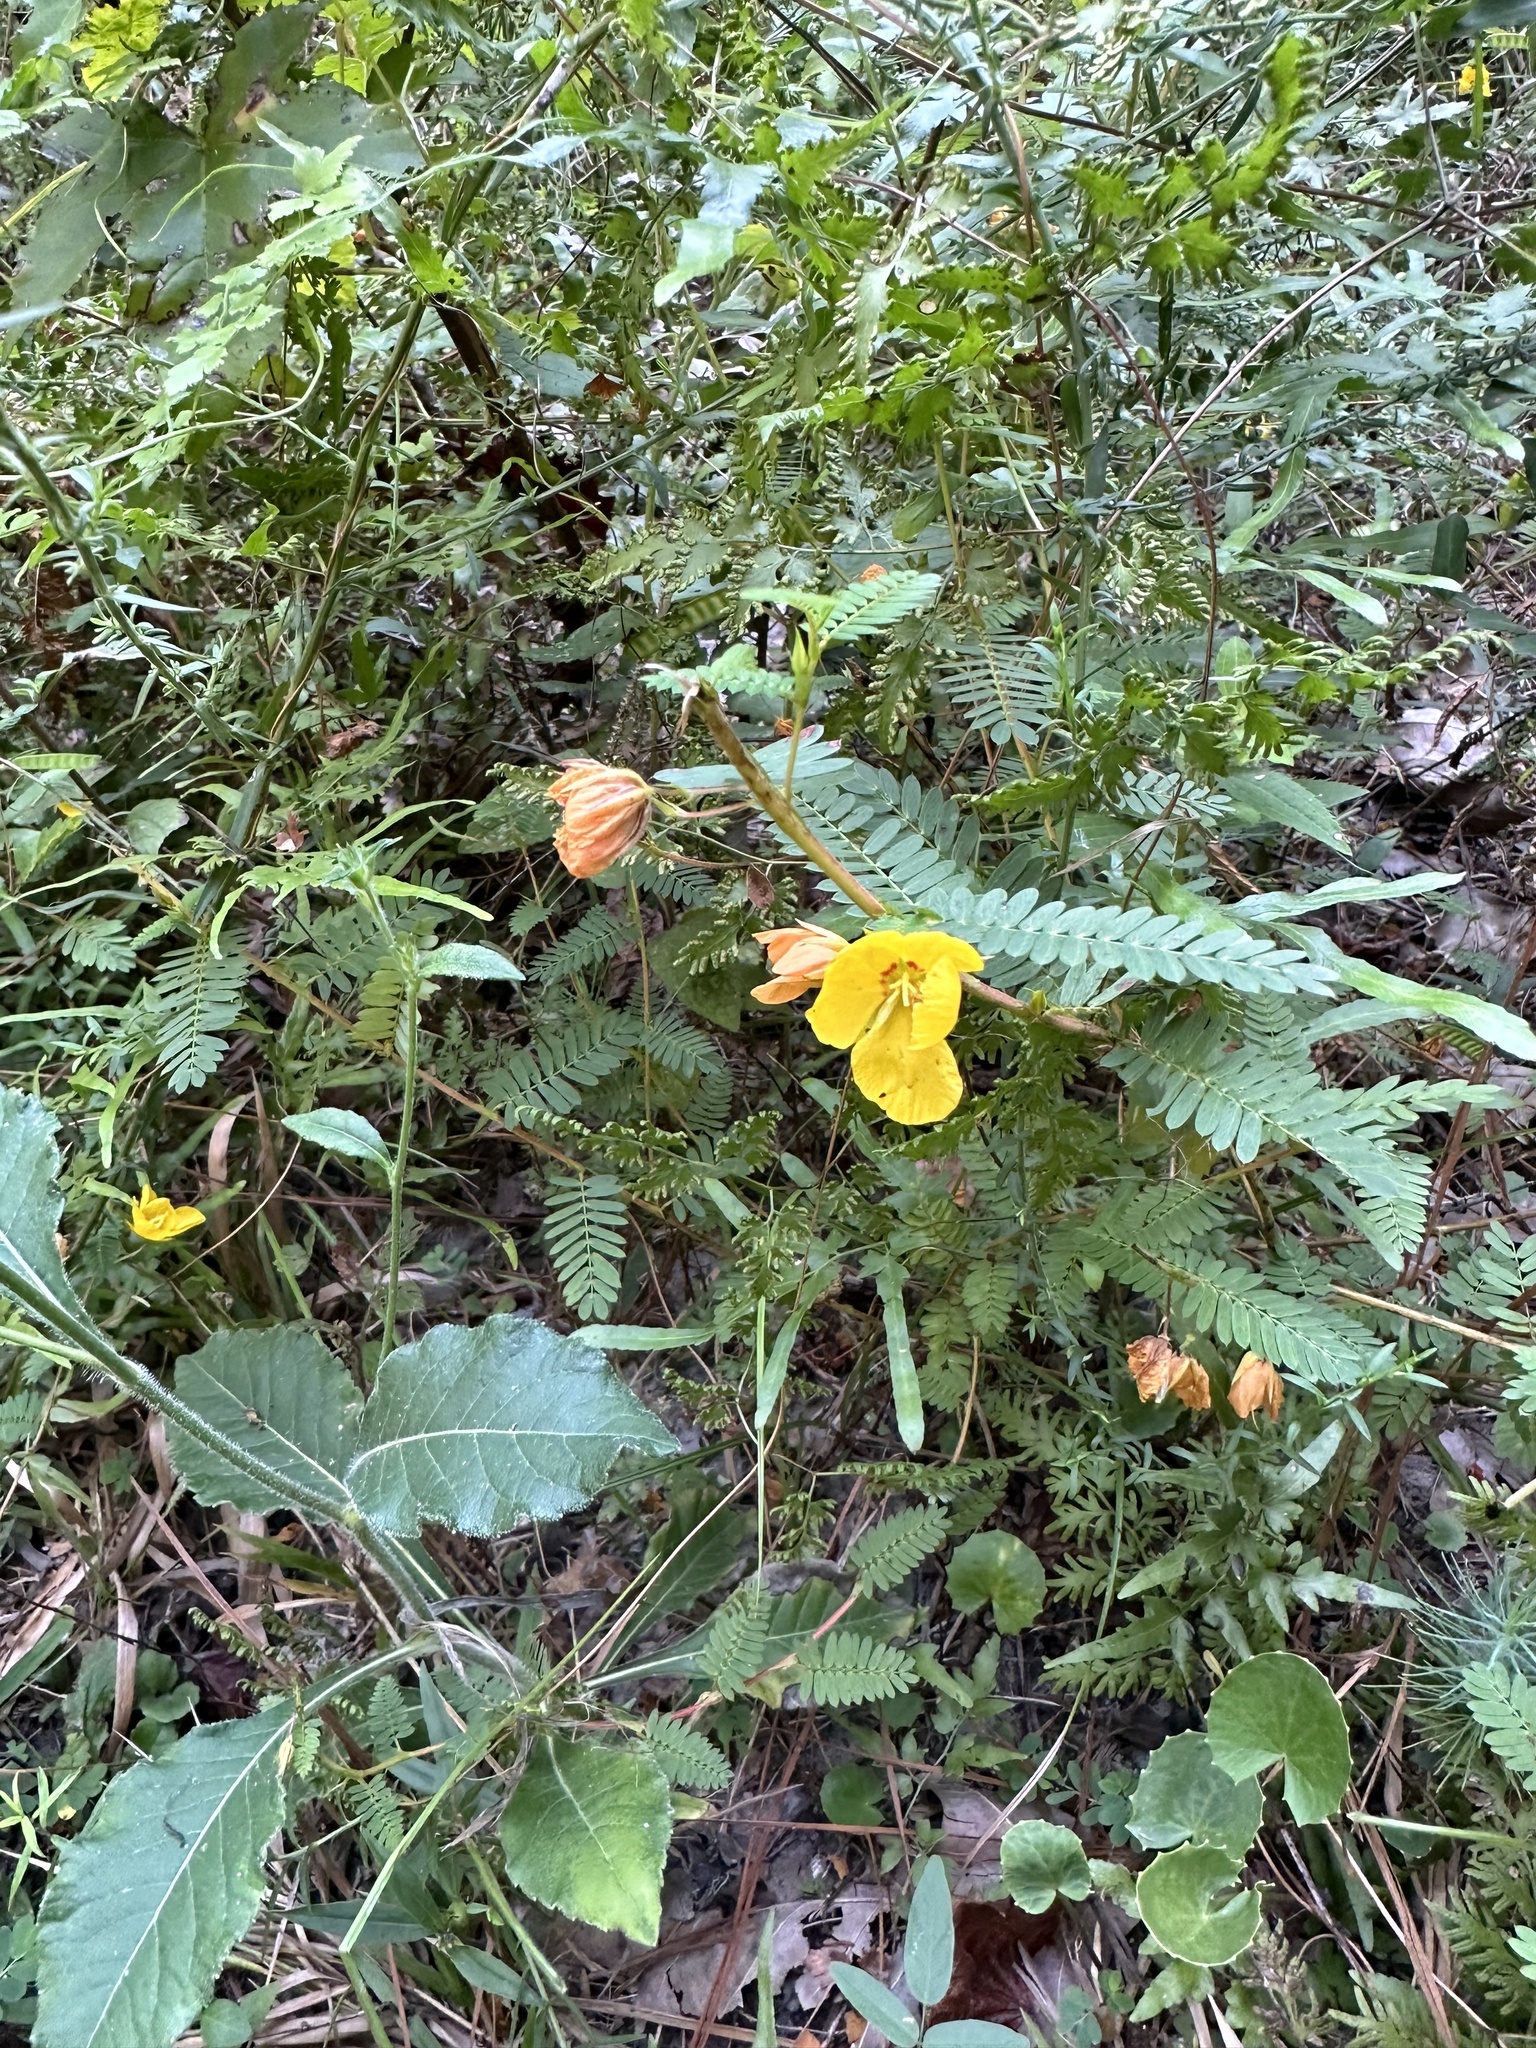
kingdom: Plantae
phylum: Tracheophyta
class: Magnoliopsida
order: Fabales
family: Fabaceae
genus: Chamaecrista
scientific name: Chamaecrista fasciculata
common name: Golden cassia
